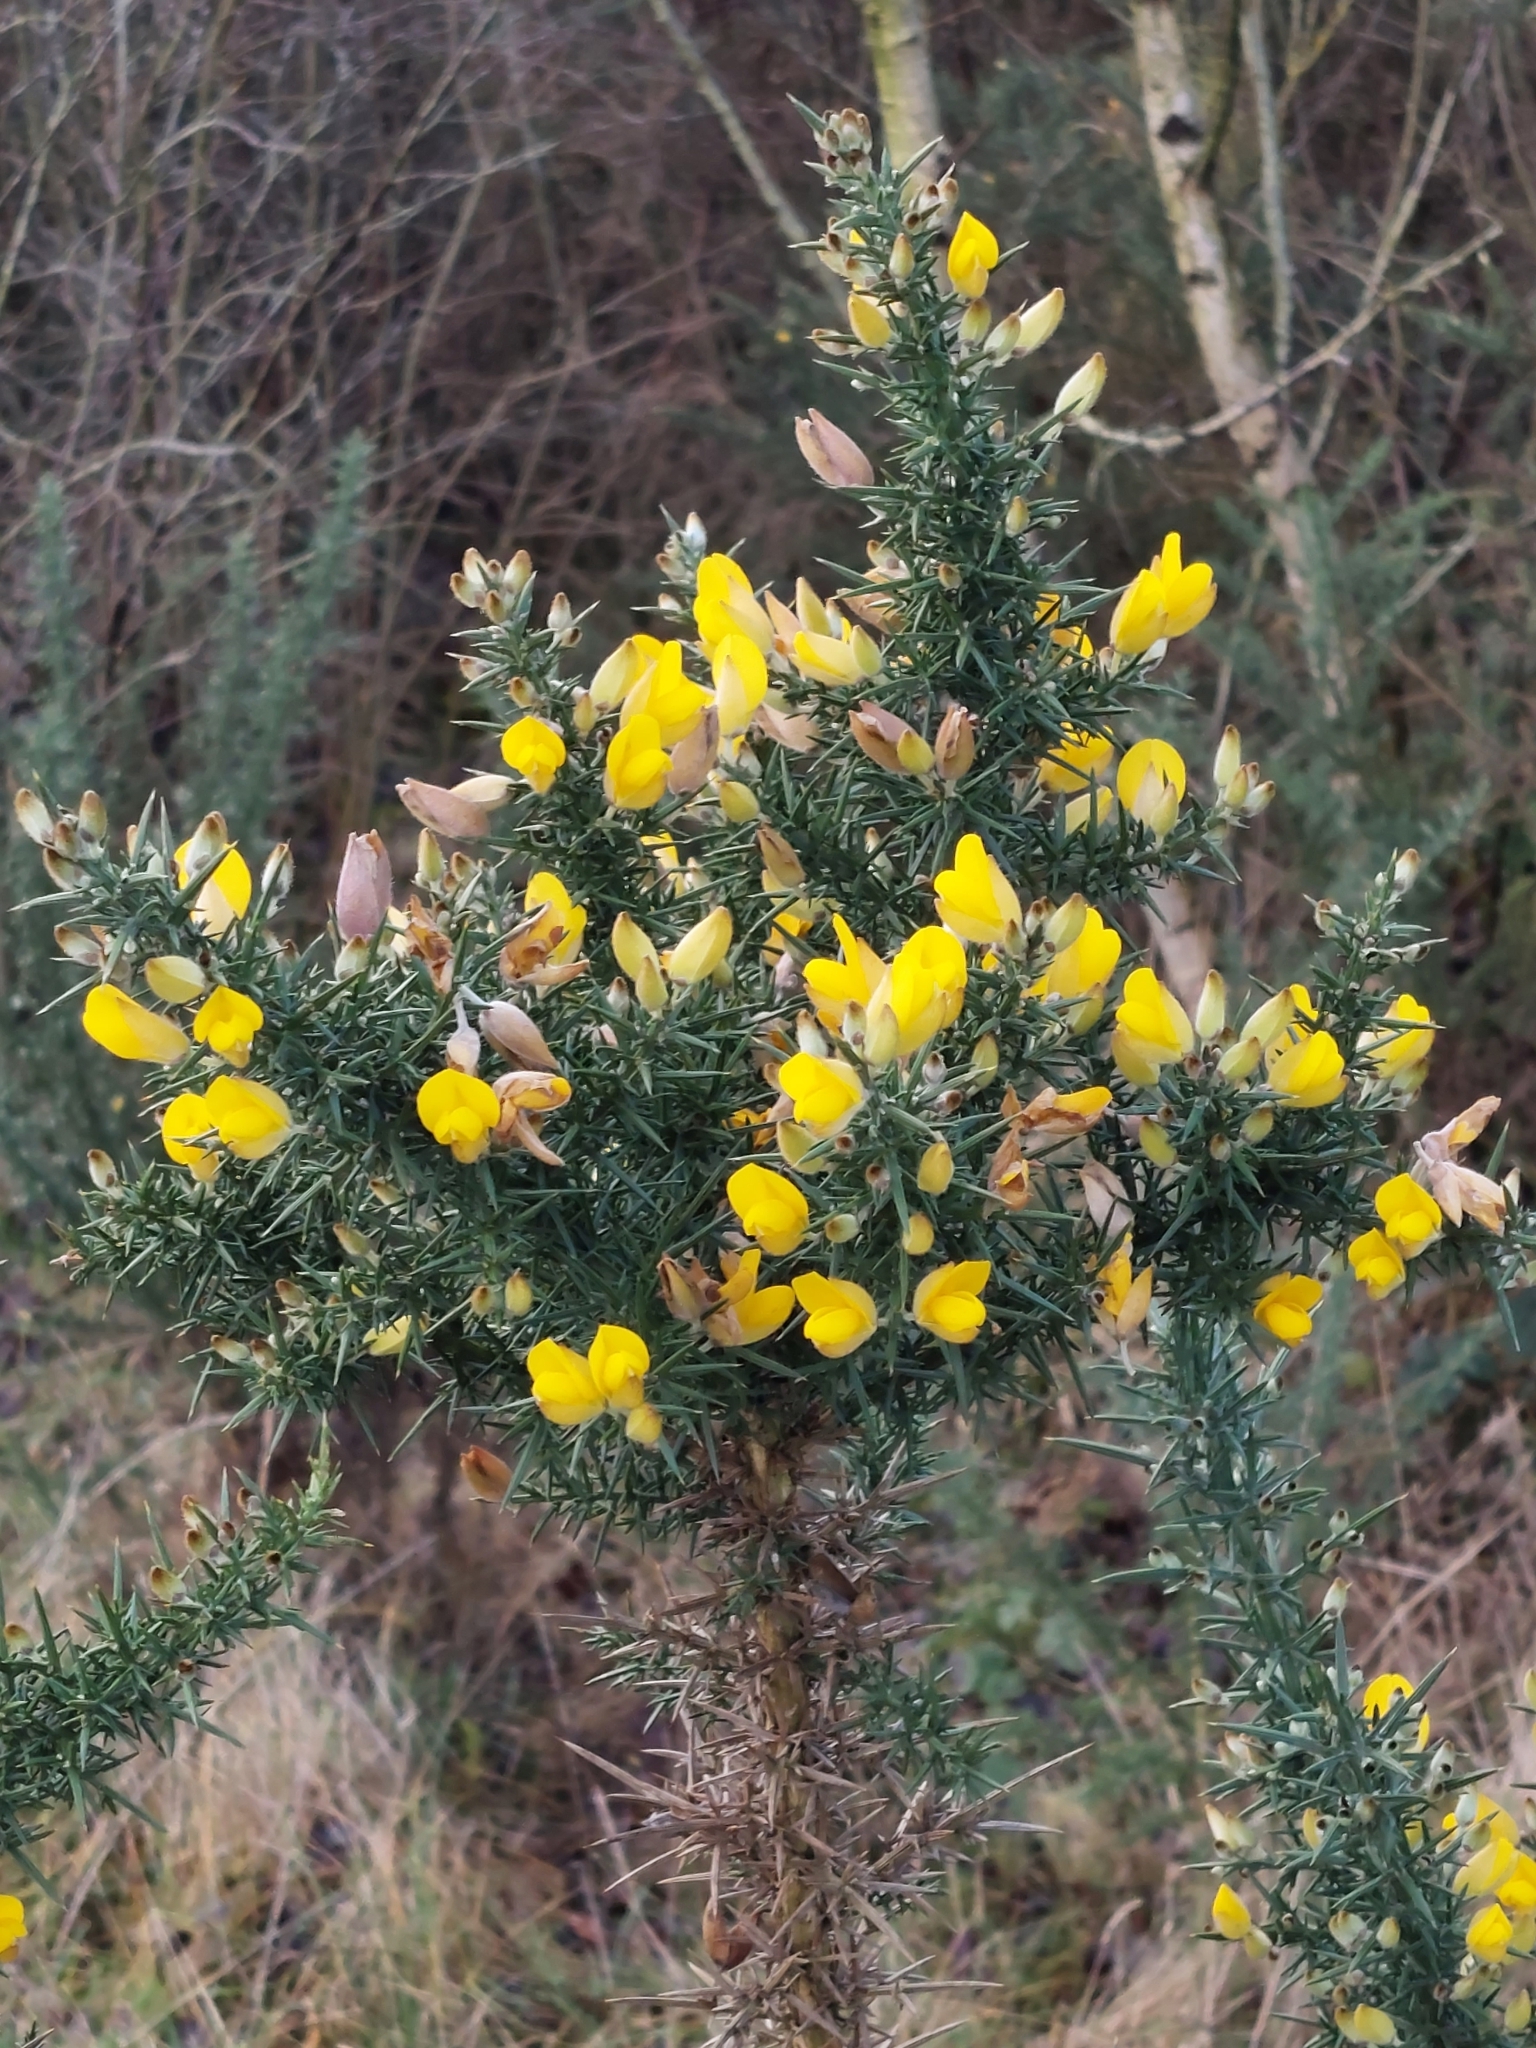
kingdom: Plantae
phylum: Tracheophyta
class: Magnoliopsida
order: Fabales
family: Fabaceae
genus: Ulex
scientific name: Ulex europaeus
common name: Common gorse
